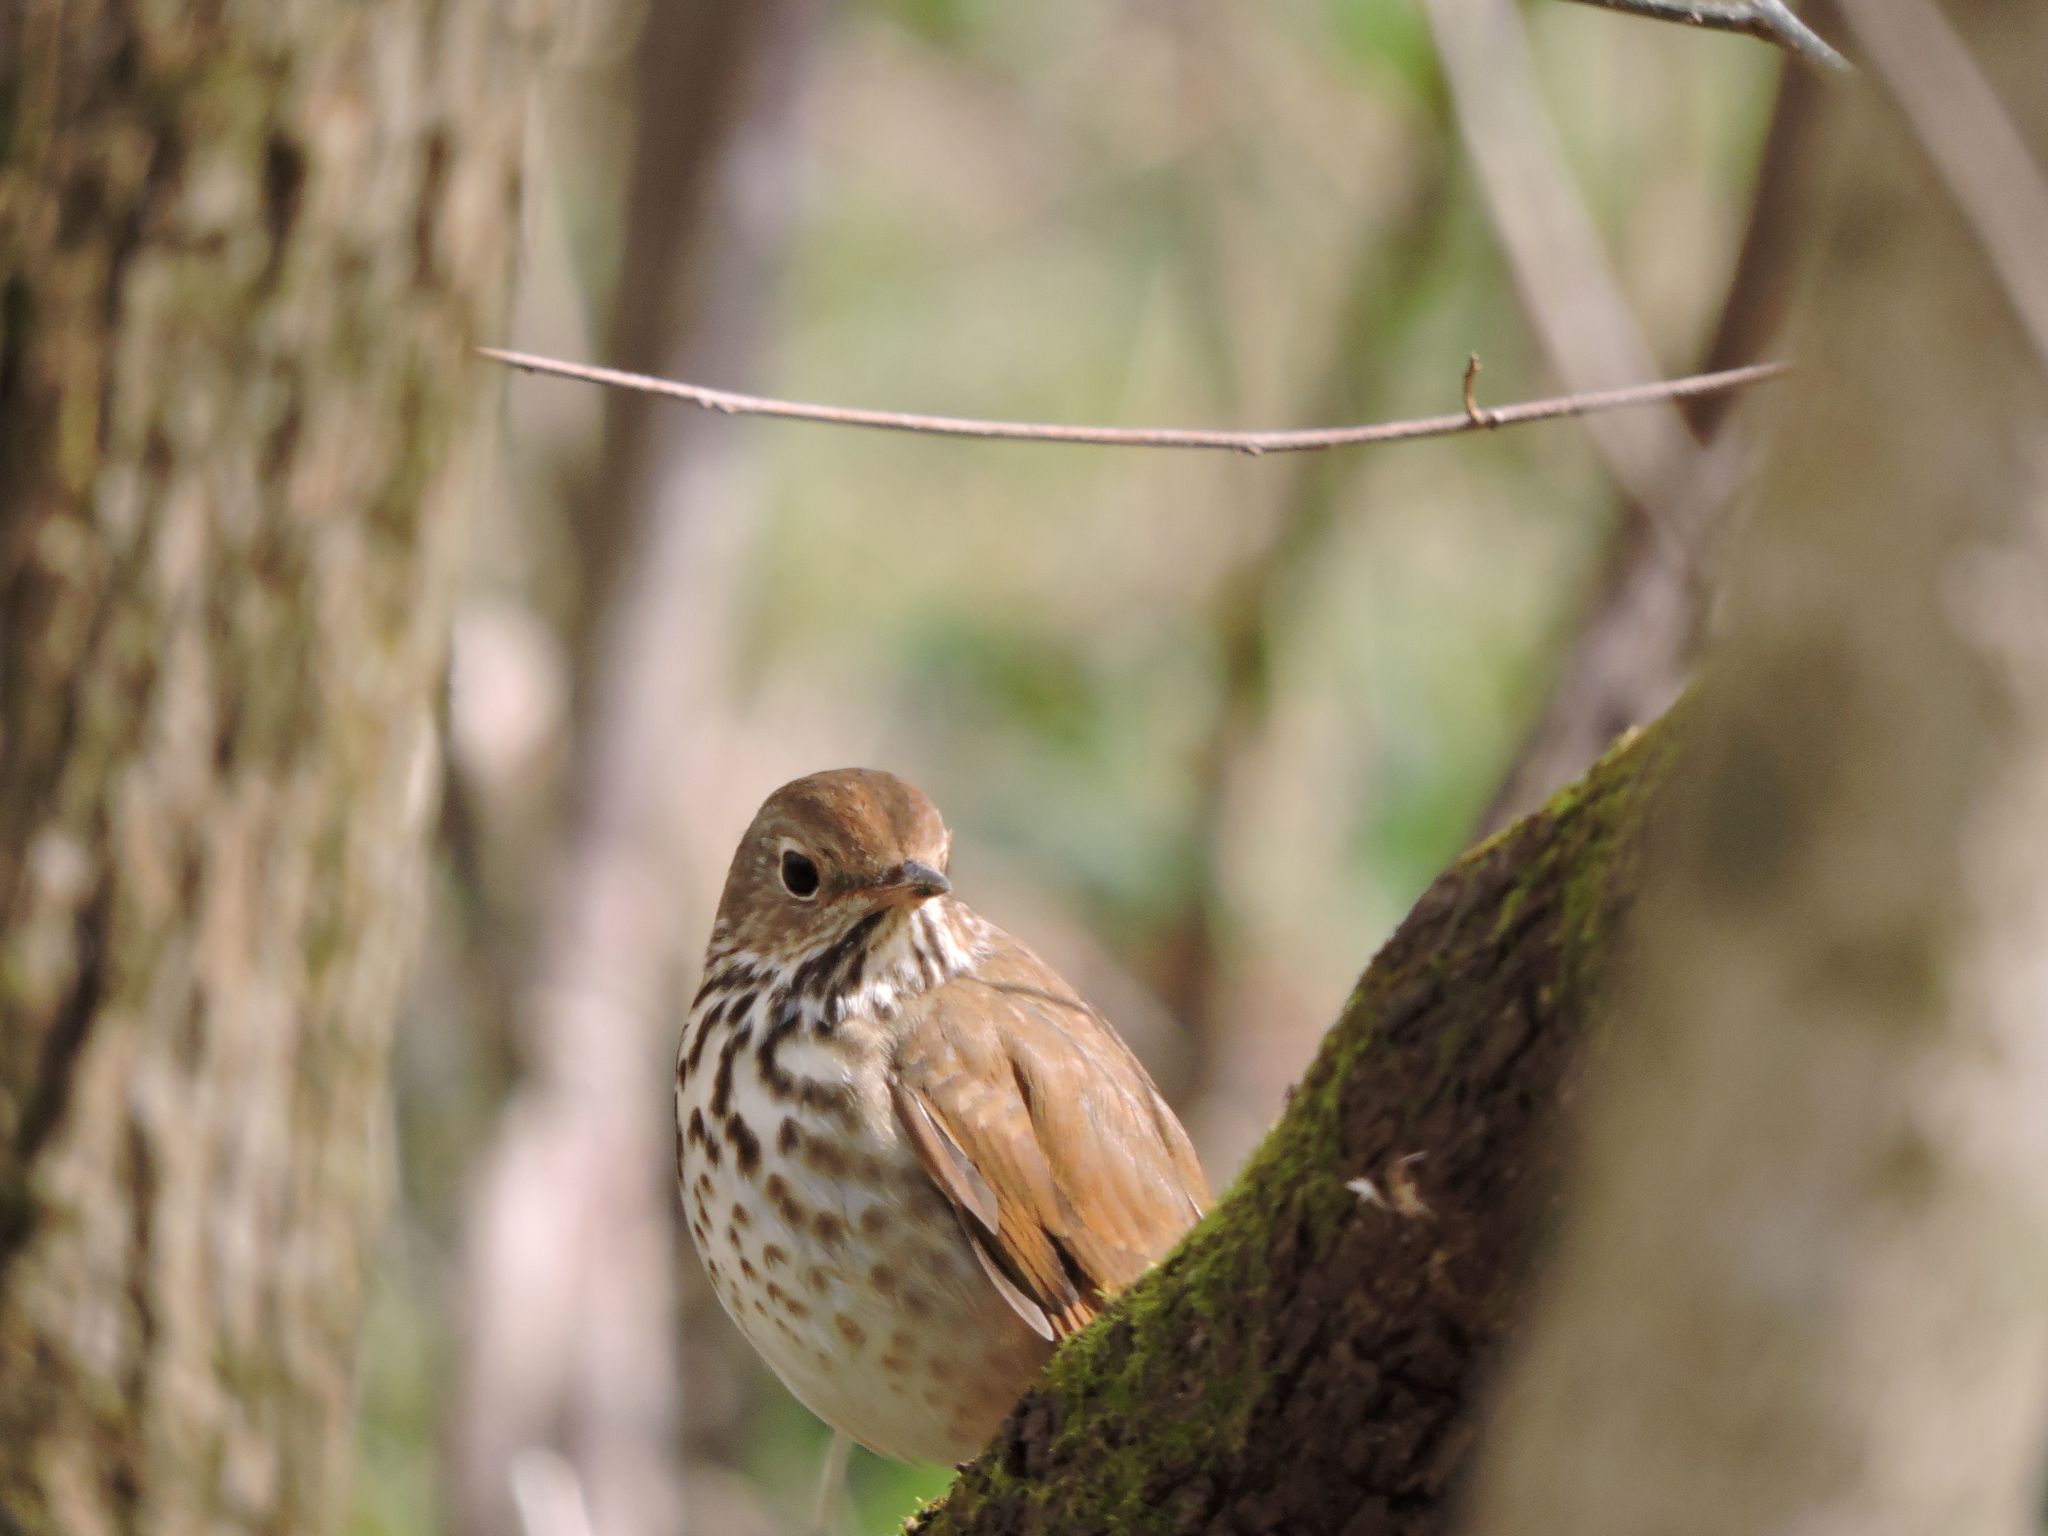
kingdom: Animalia
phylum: Chordata
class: Aves
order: Passeriformes
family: Turdidae
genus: Catharus
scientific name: Catharus guttatus
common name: Hermit thrush
